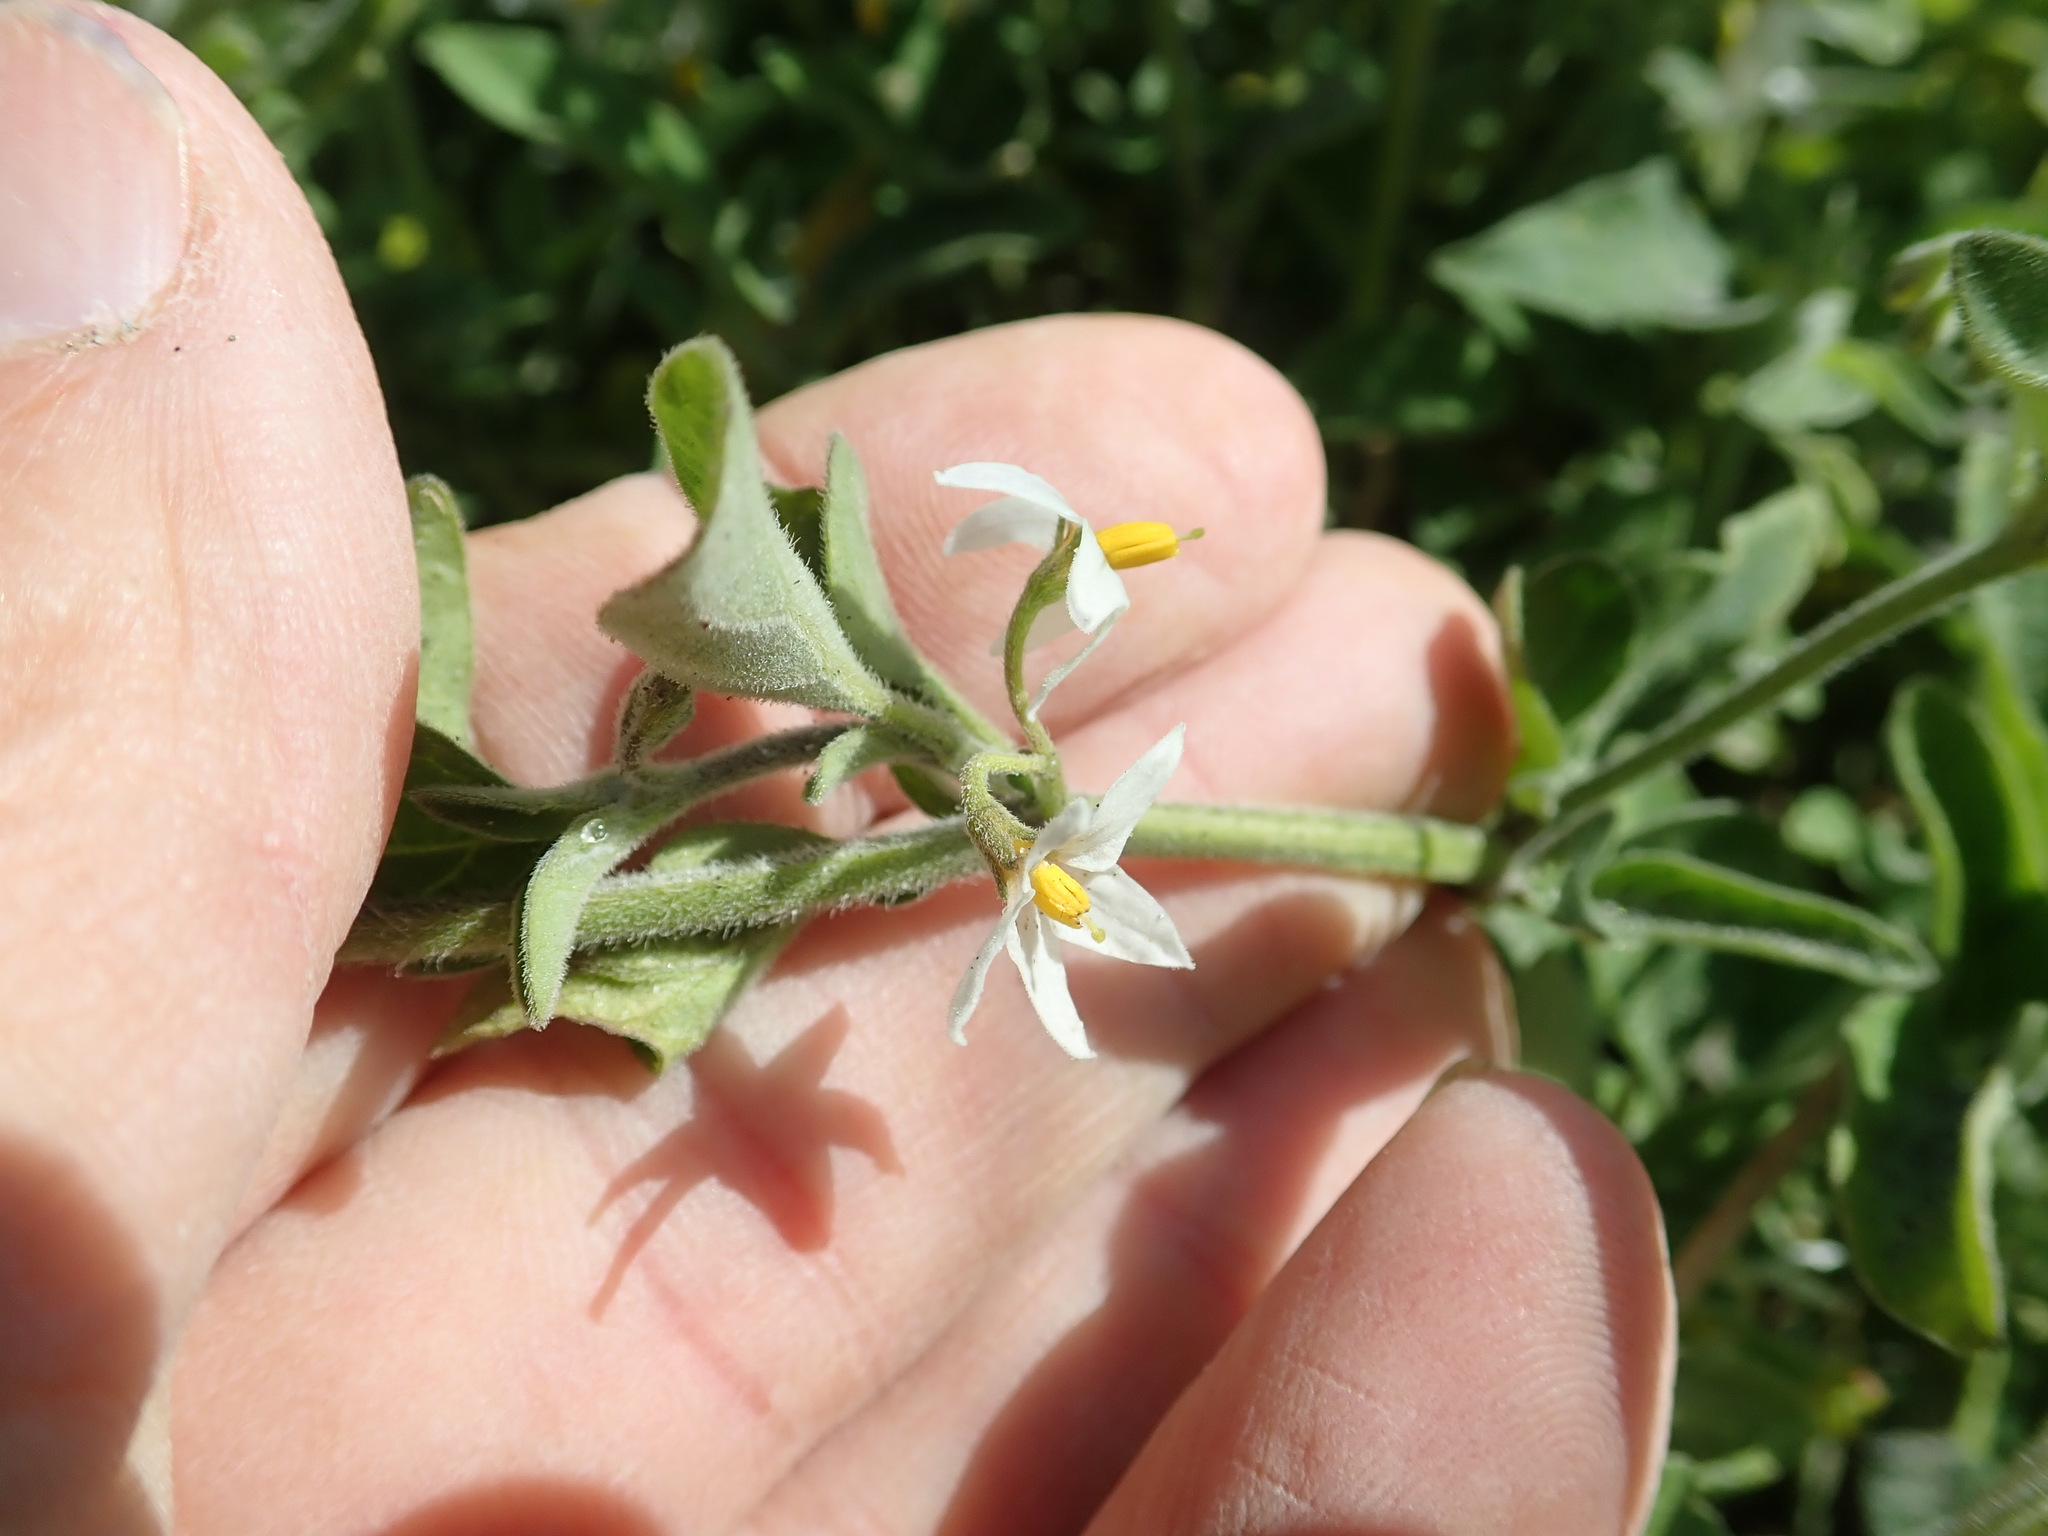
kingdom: Plantae
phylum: Tracheophyta
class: Magnoliopsida
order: Solanales
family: Solanaceae
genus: Solanum
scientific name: Solanum chenopodioides
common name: Tall nightshade
